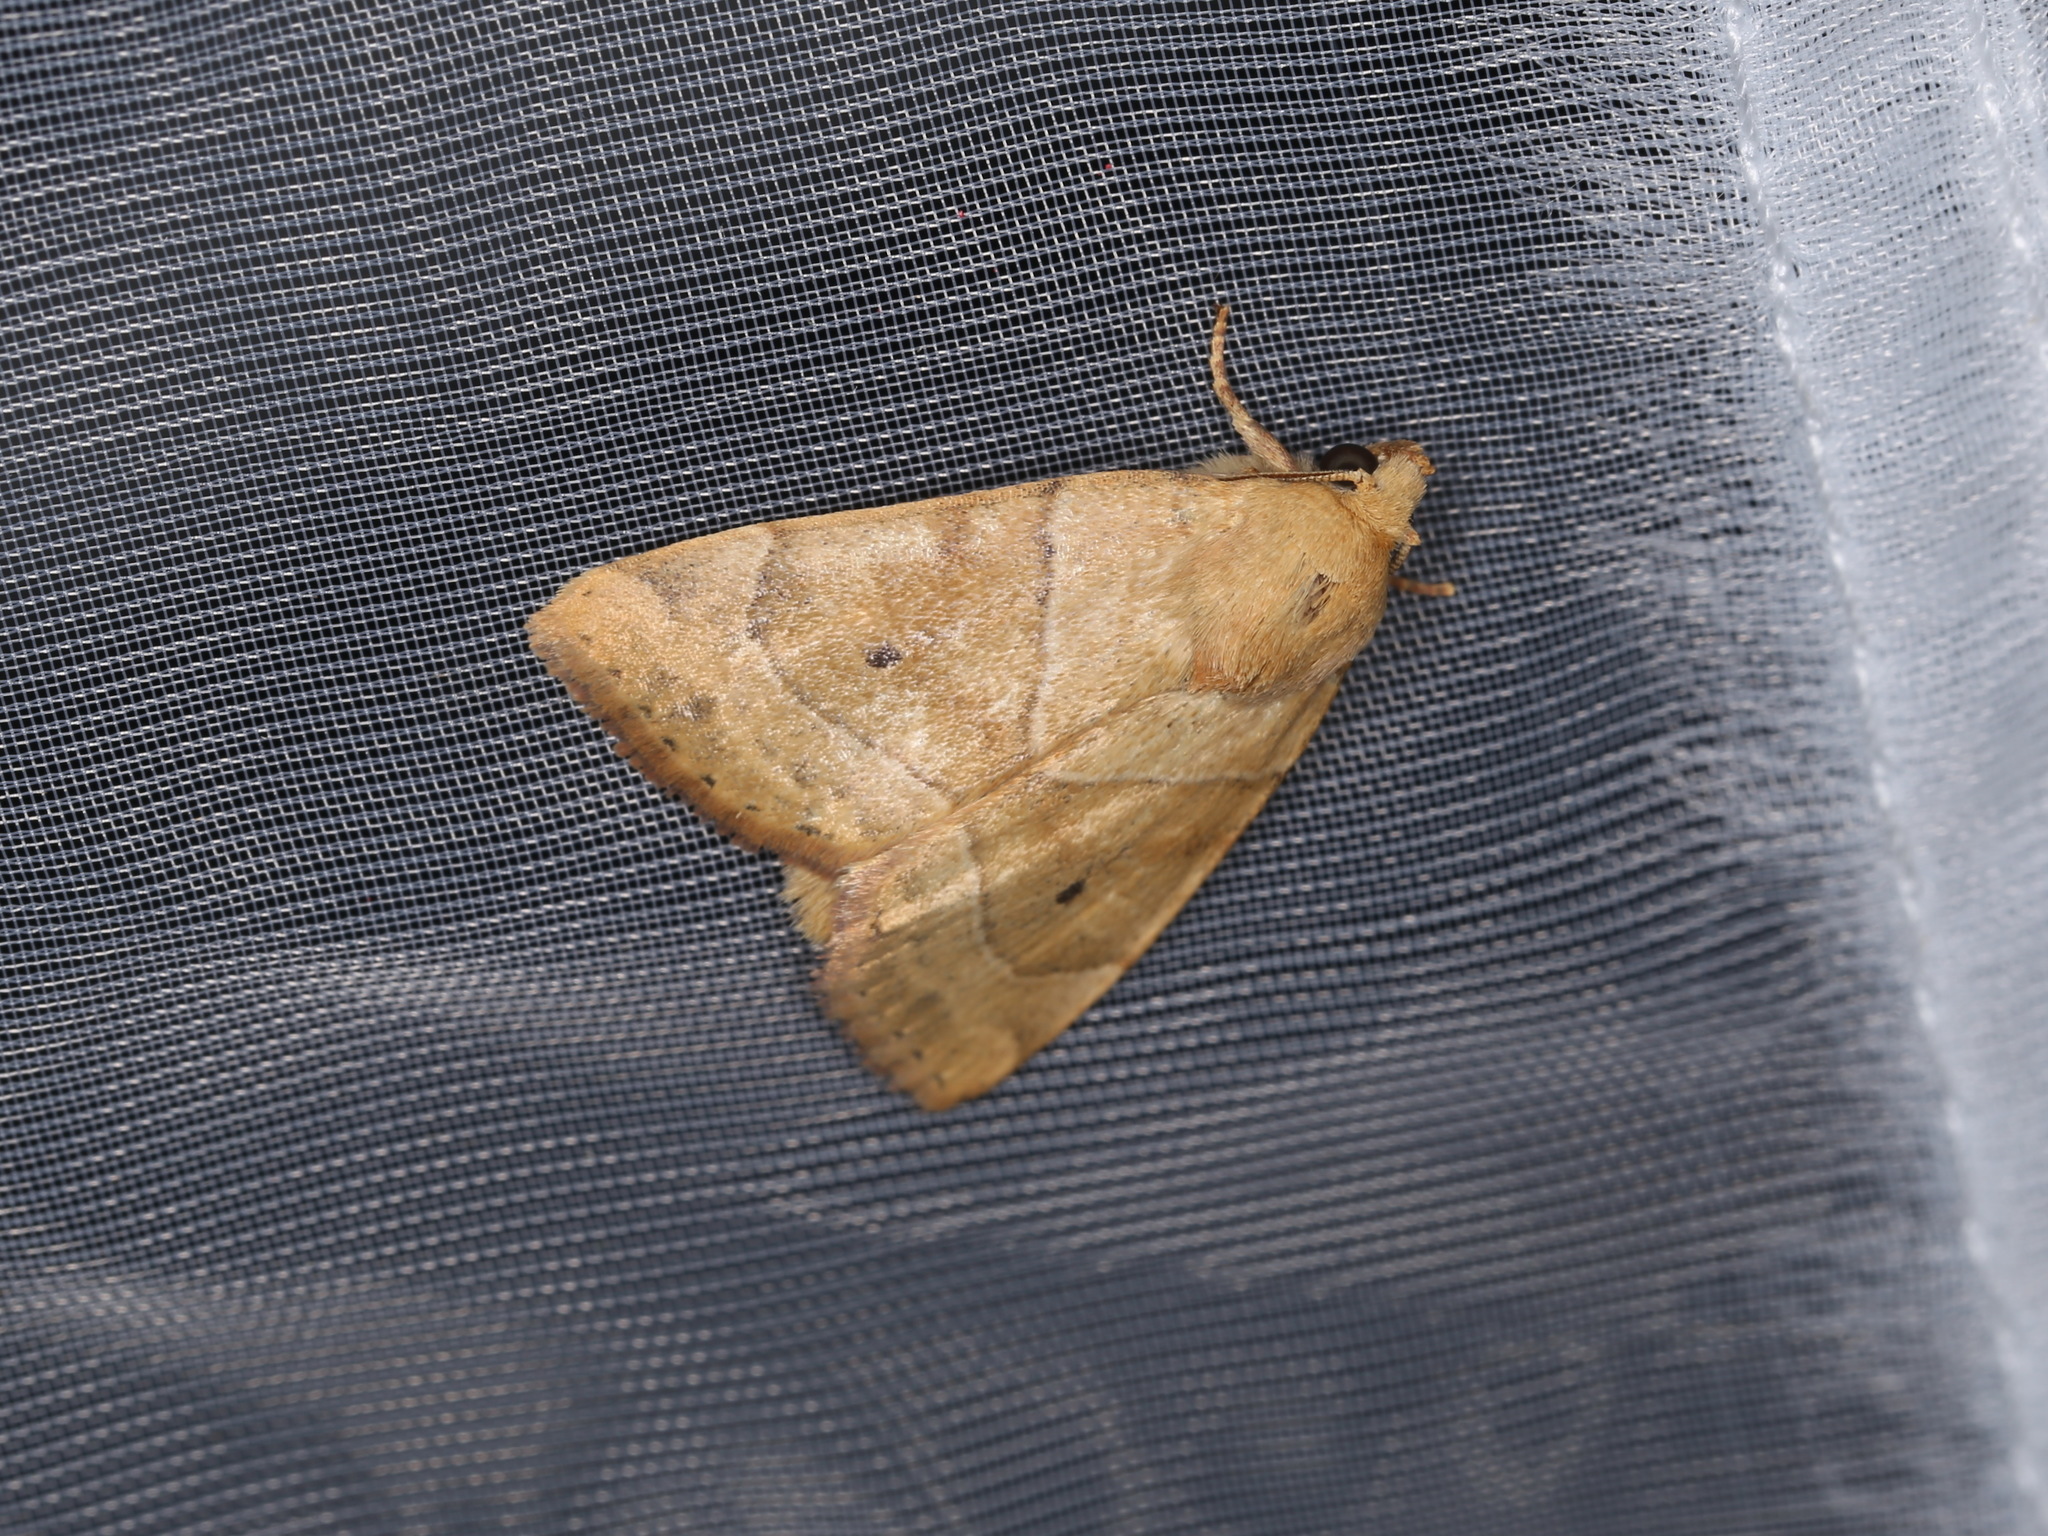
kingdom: Animalia
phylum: Arthropoda
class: Insecta
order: Lepidoptera
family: Noctuidae
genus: Cosmia
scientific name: Cosmia trapezina
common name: Dun-bar
